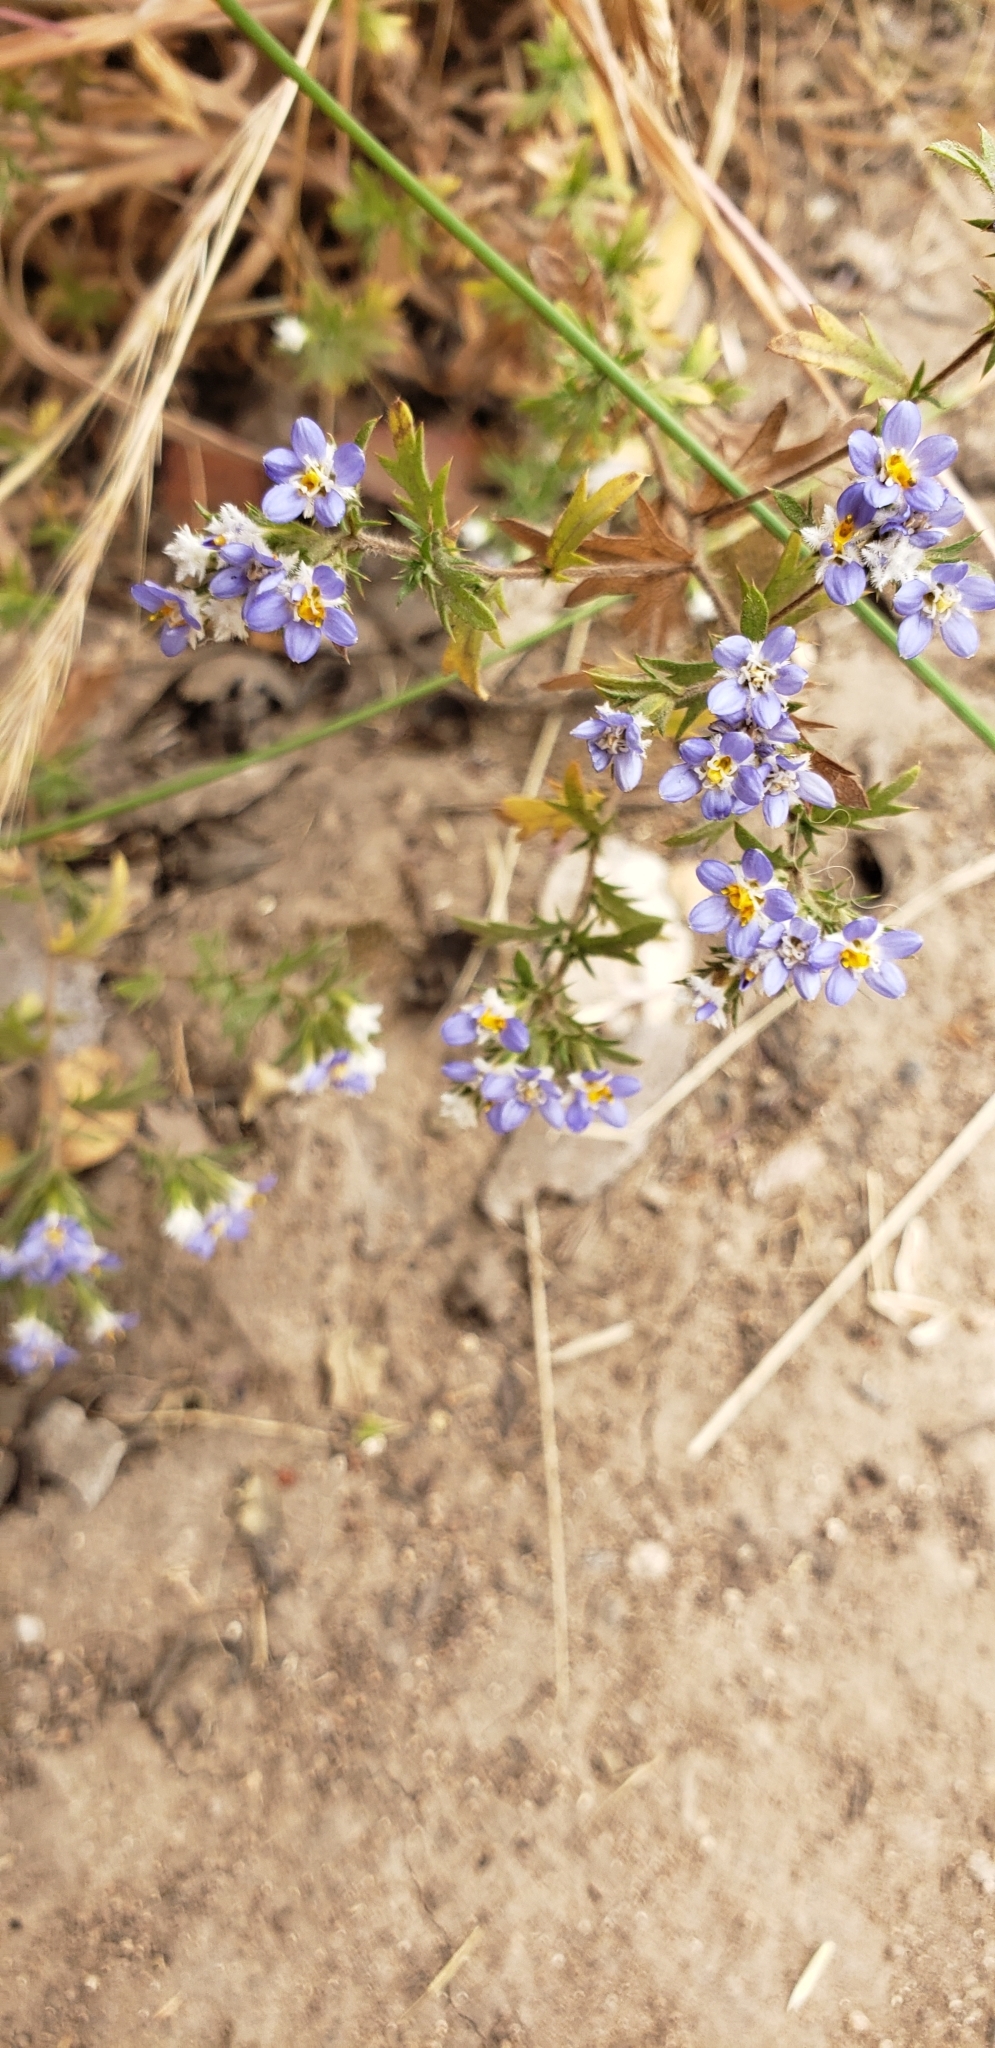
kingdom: Plantae
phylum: Tracheophyta
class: Magnoliopsida
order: Asterales
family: Asteraceae
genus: Triptilion
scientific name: Triptilion spinosum
